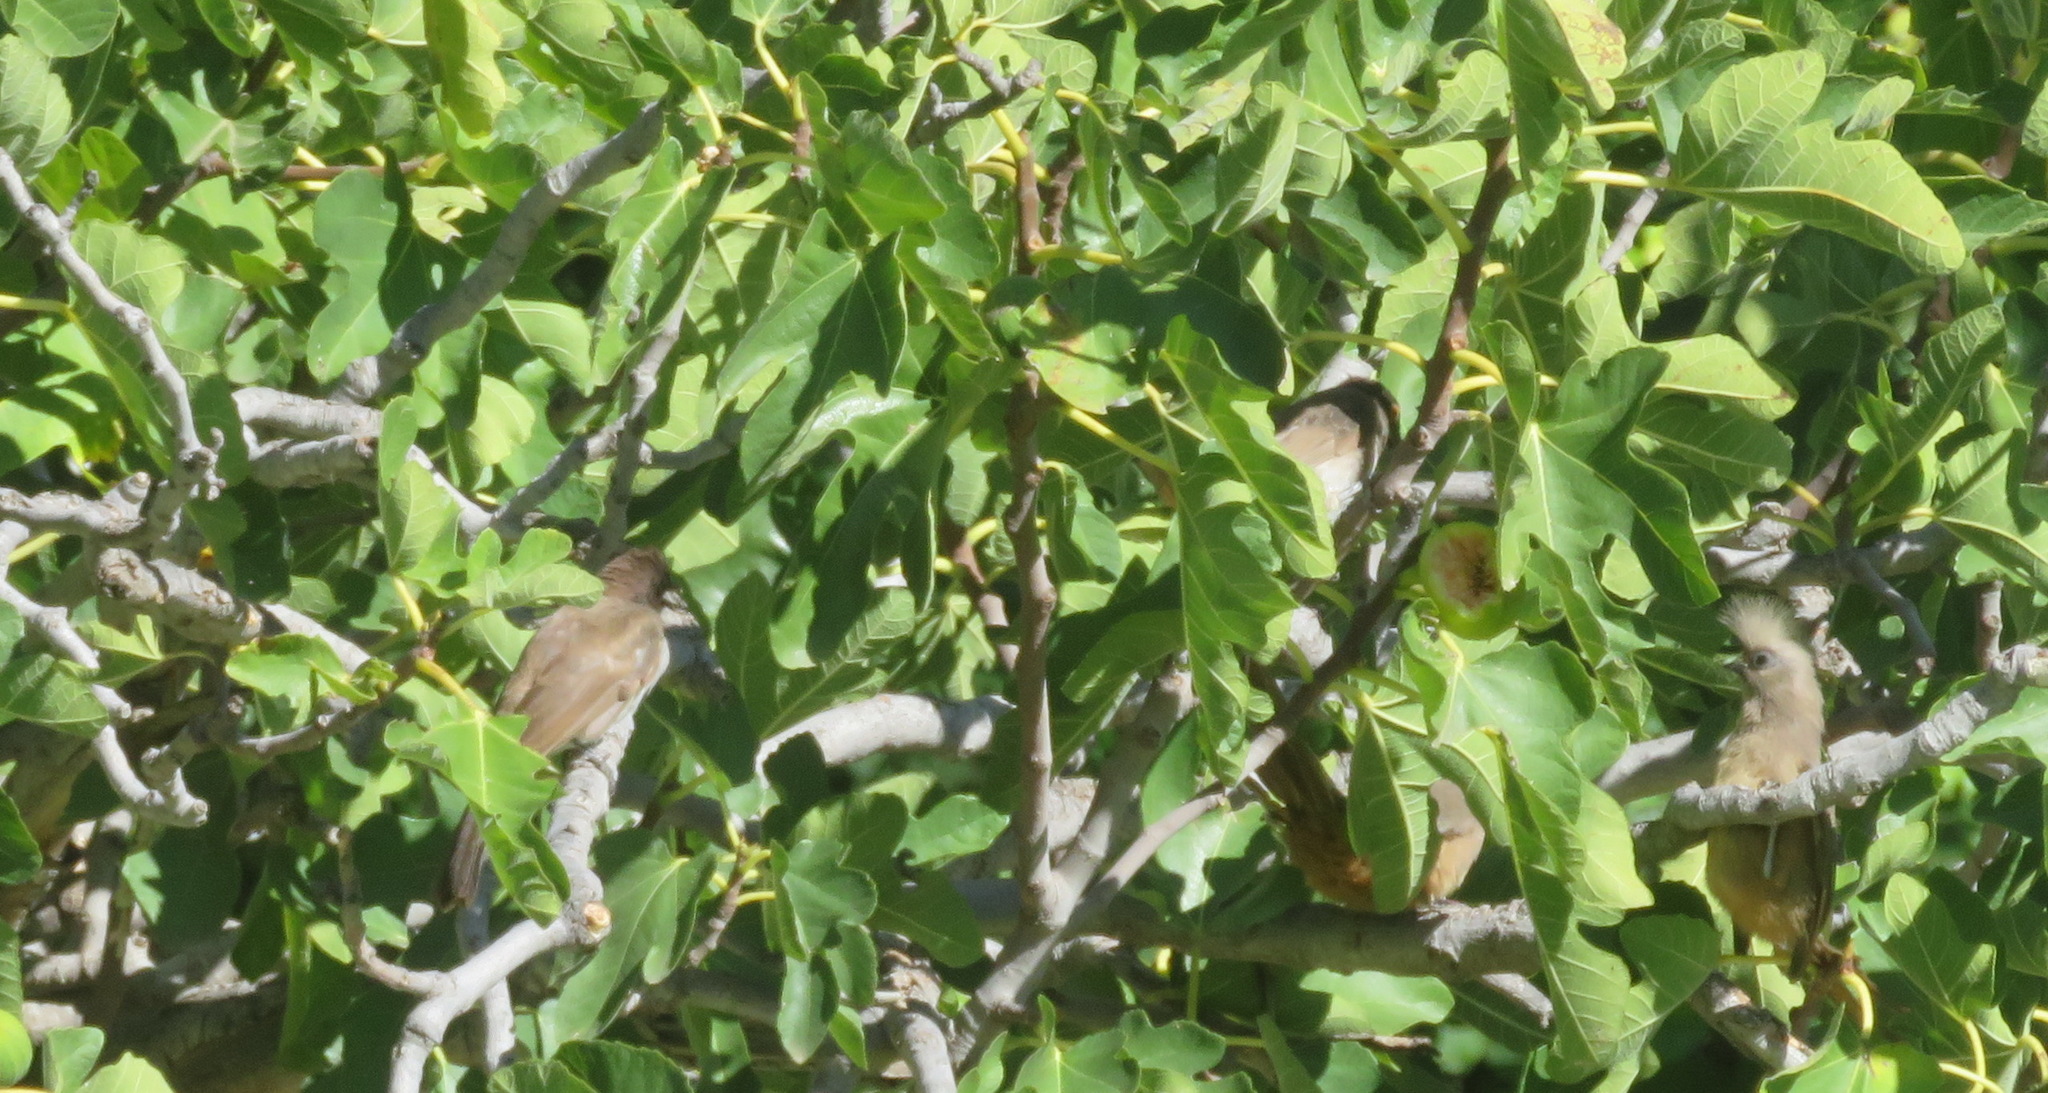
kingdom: Animalia
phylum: Chordata
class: Aves
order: Coliiformes
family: Coliidae
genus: Colius
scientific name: Colius striatus
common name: Speckled mousebird
